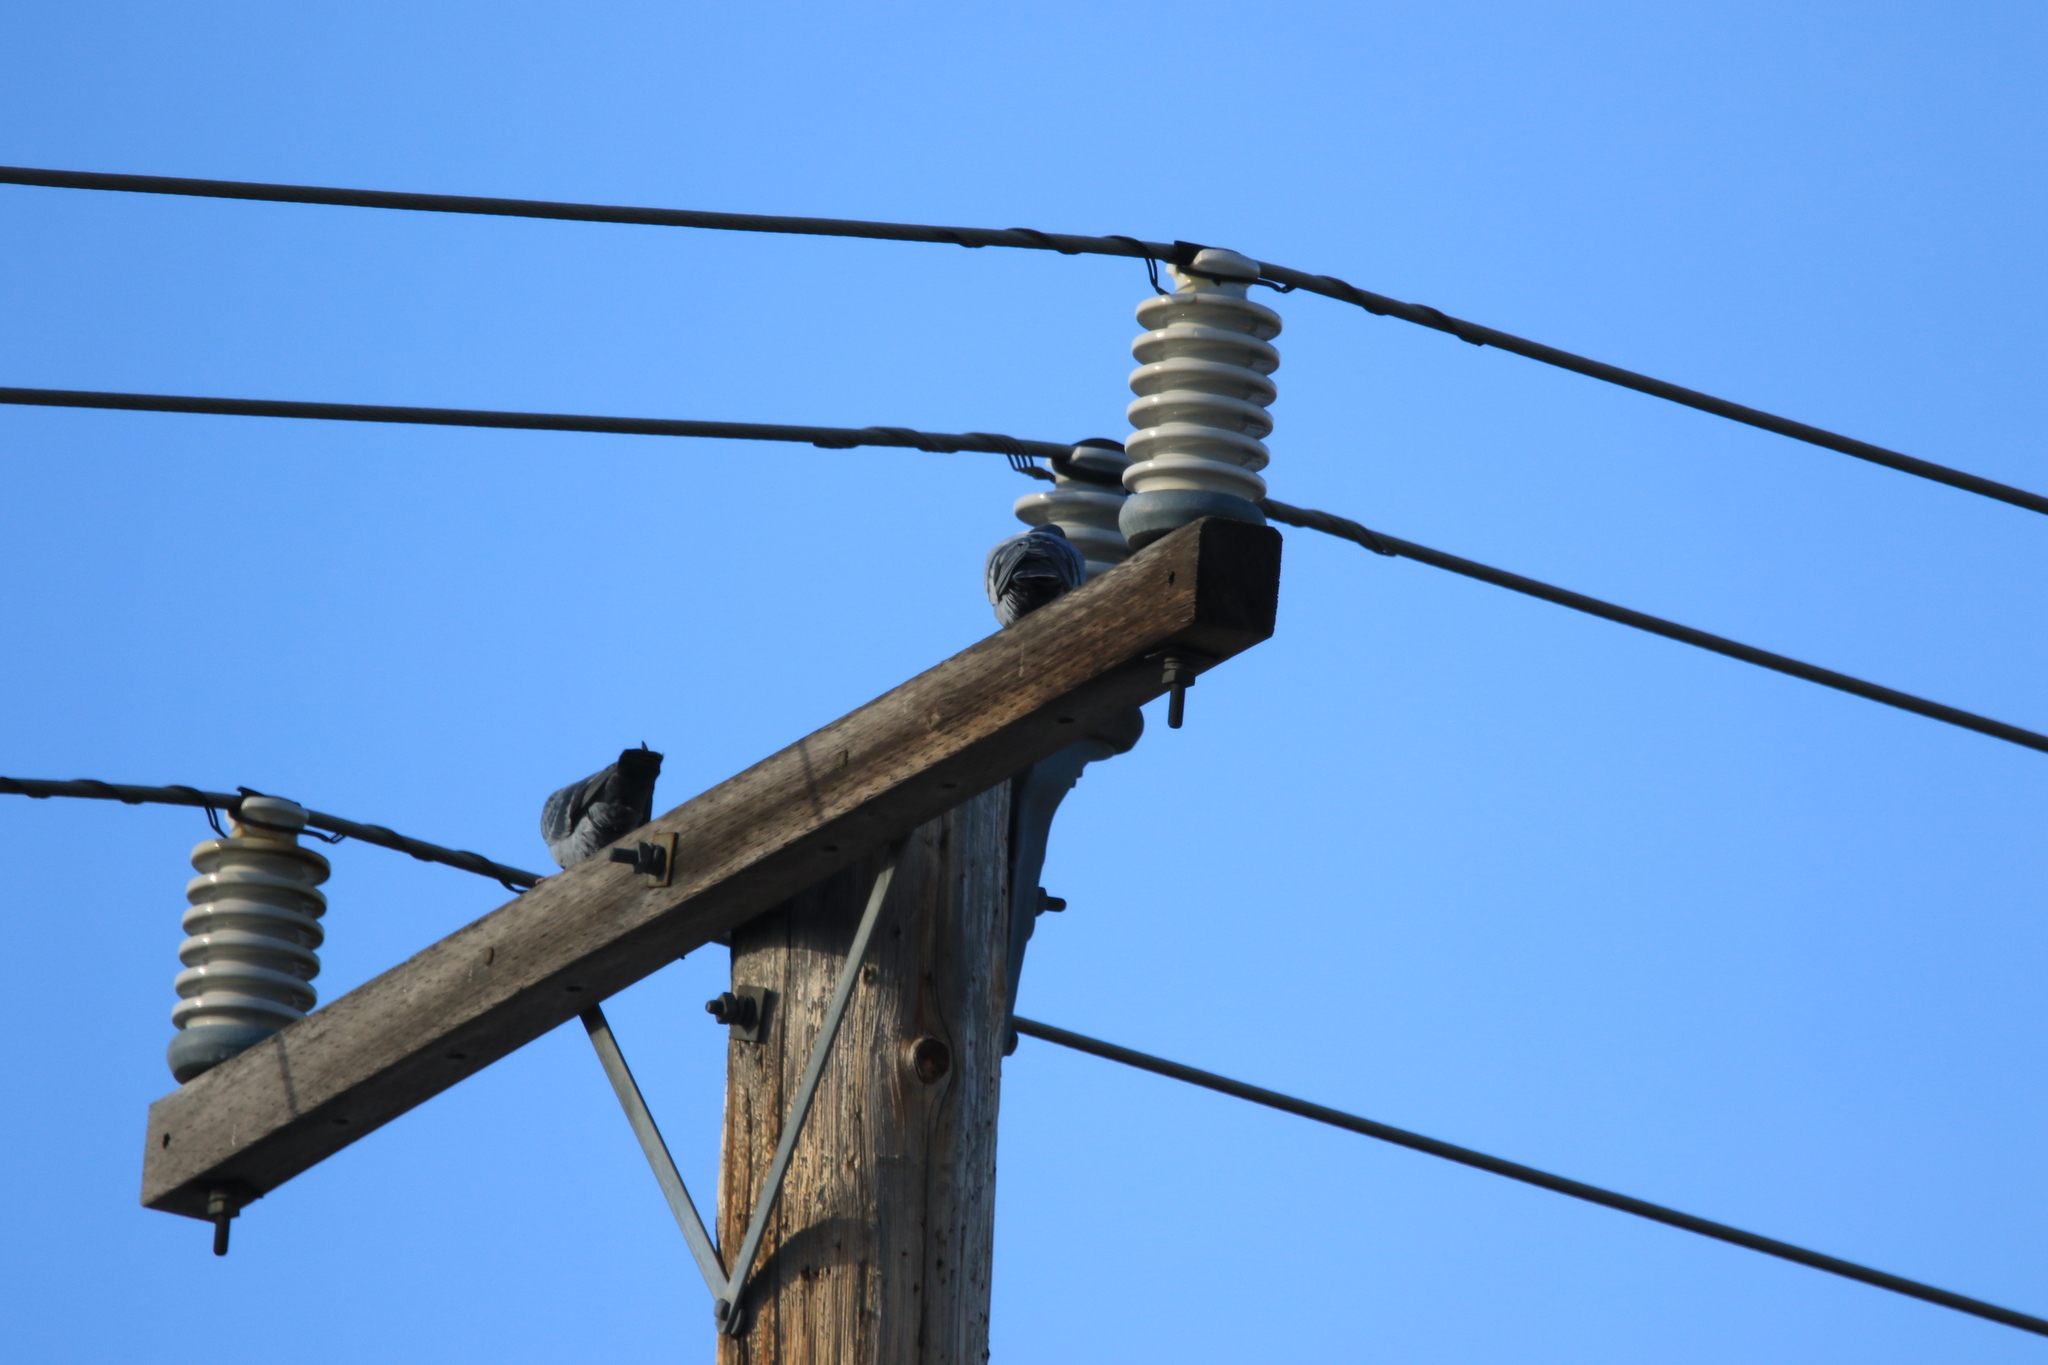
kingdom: Animalia
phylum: Chordata
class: Aves
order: Columbiformes
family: Columbidae
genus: Columba
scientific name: Columba livia
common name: Rock pigeon
